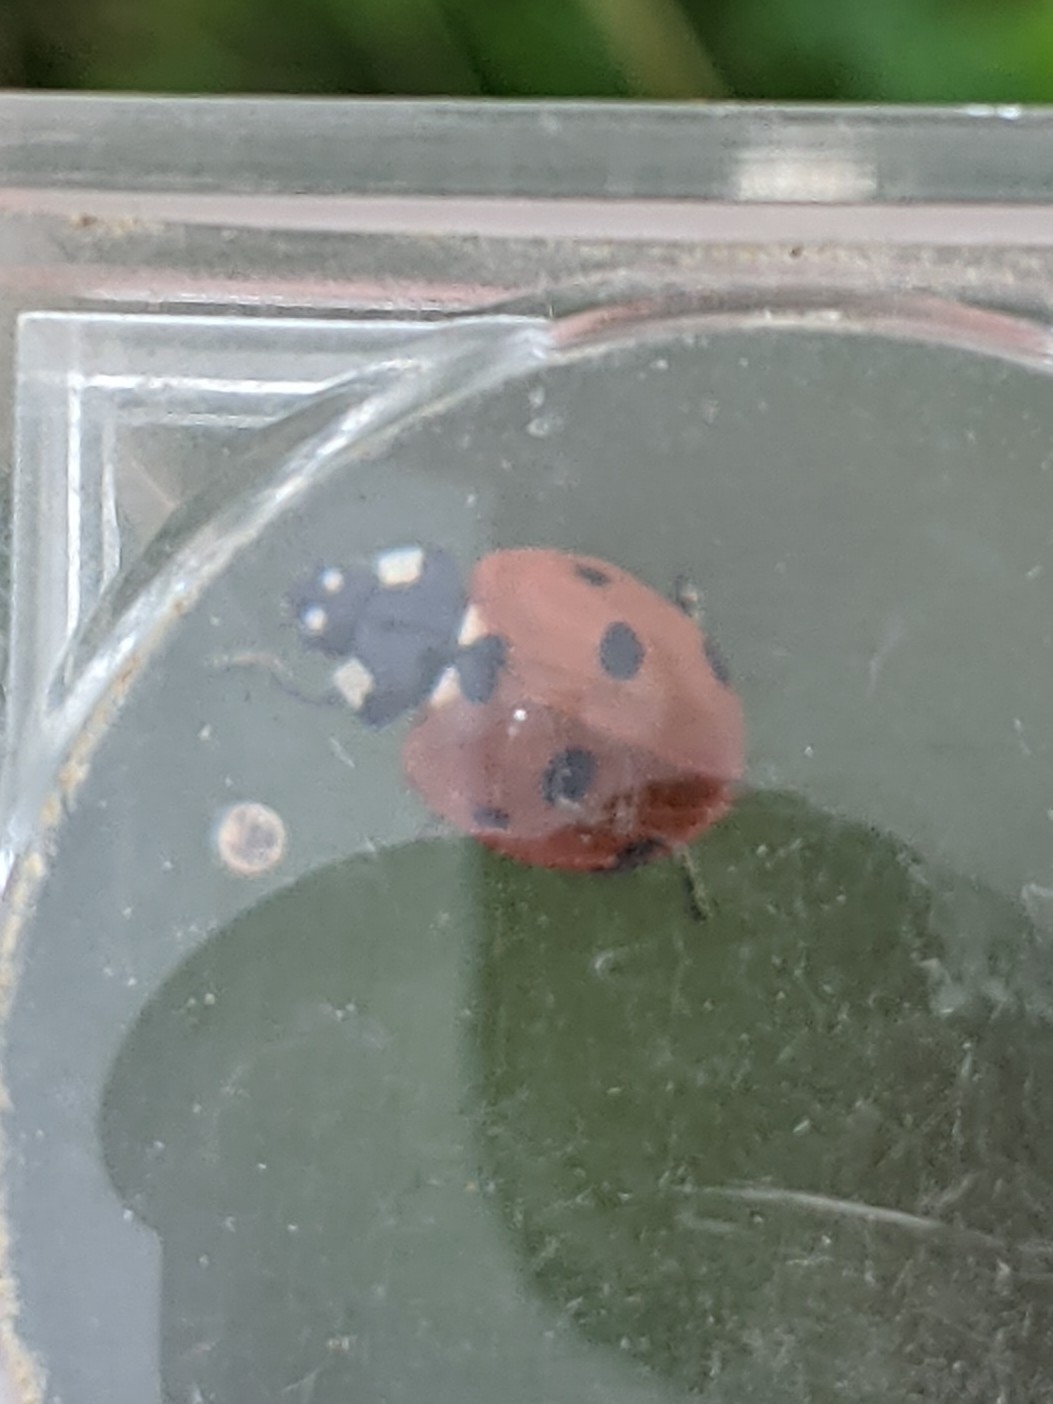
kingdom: Animalia
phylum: Arthropoda
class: Insecta
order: Coleoptera
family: Coccinellidae
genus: Coccinella
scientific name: Coccinella septempunctata
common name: Sevenspotted lady beetle
